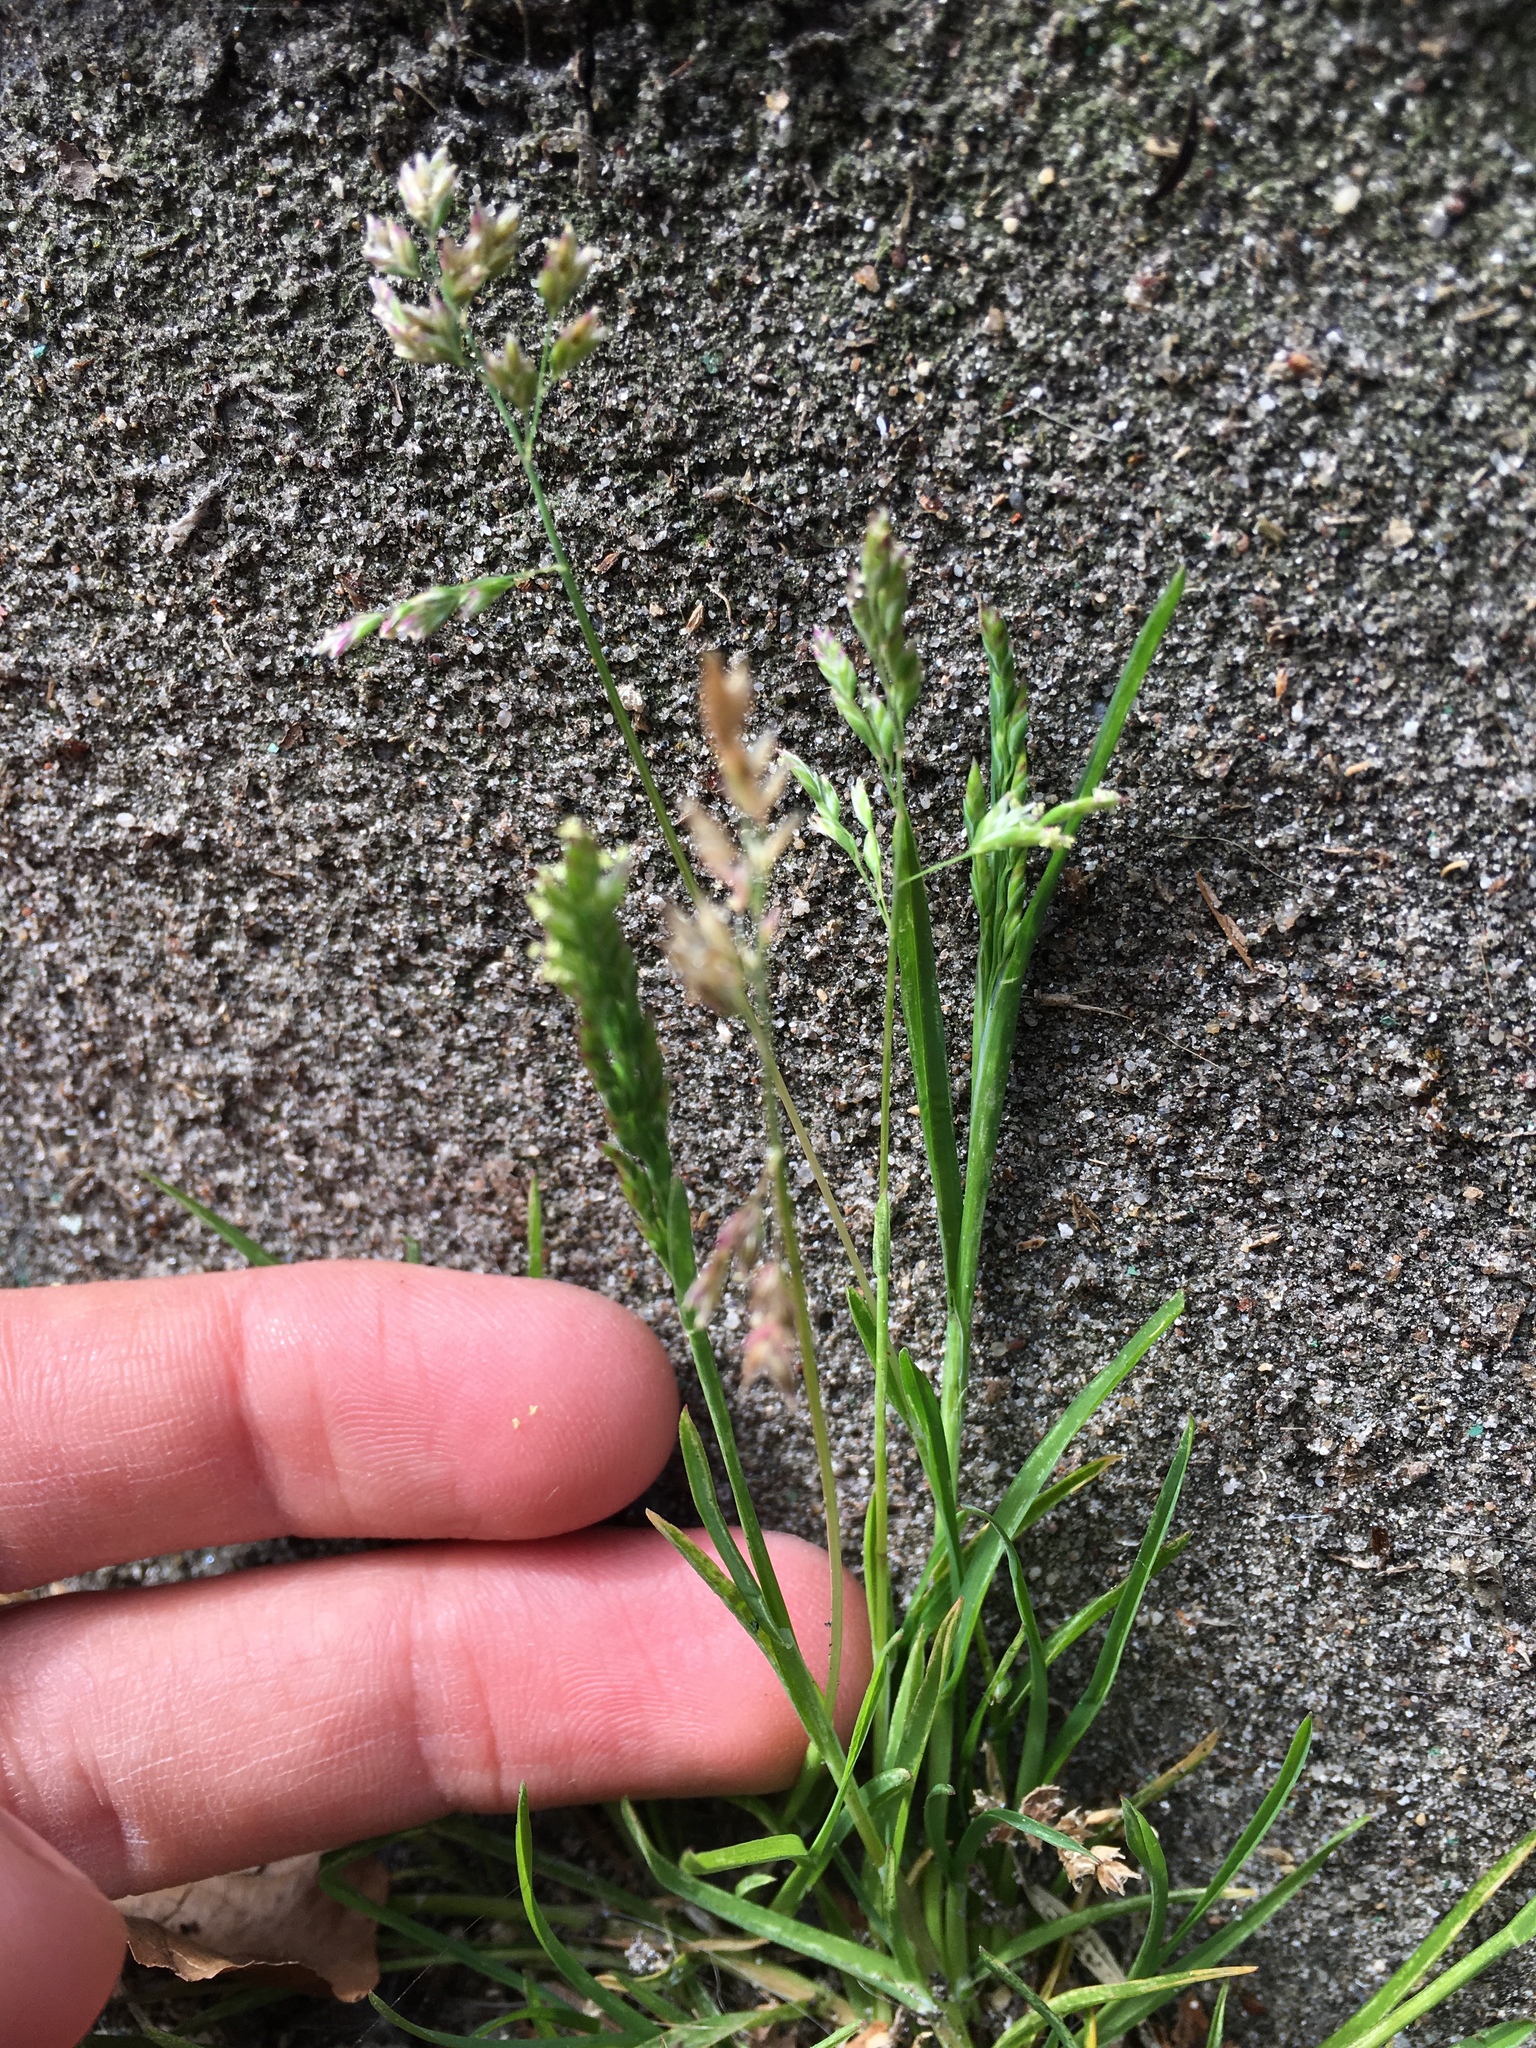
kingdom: Plantae
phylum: Tracheophyta
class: Liliopsida
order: Poales
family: Poaceae
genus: Poa
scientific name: Poa annua
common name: Annual bluegrass
